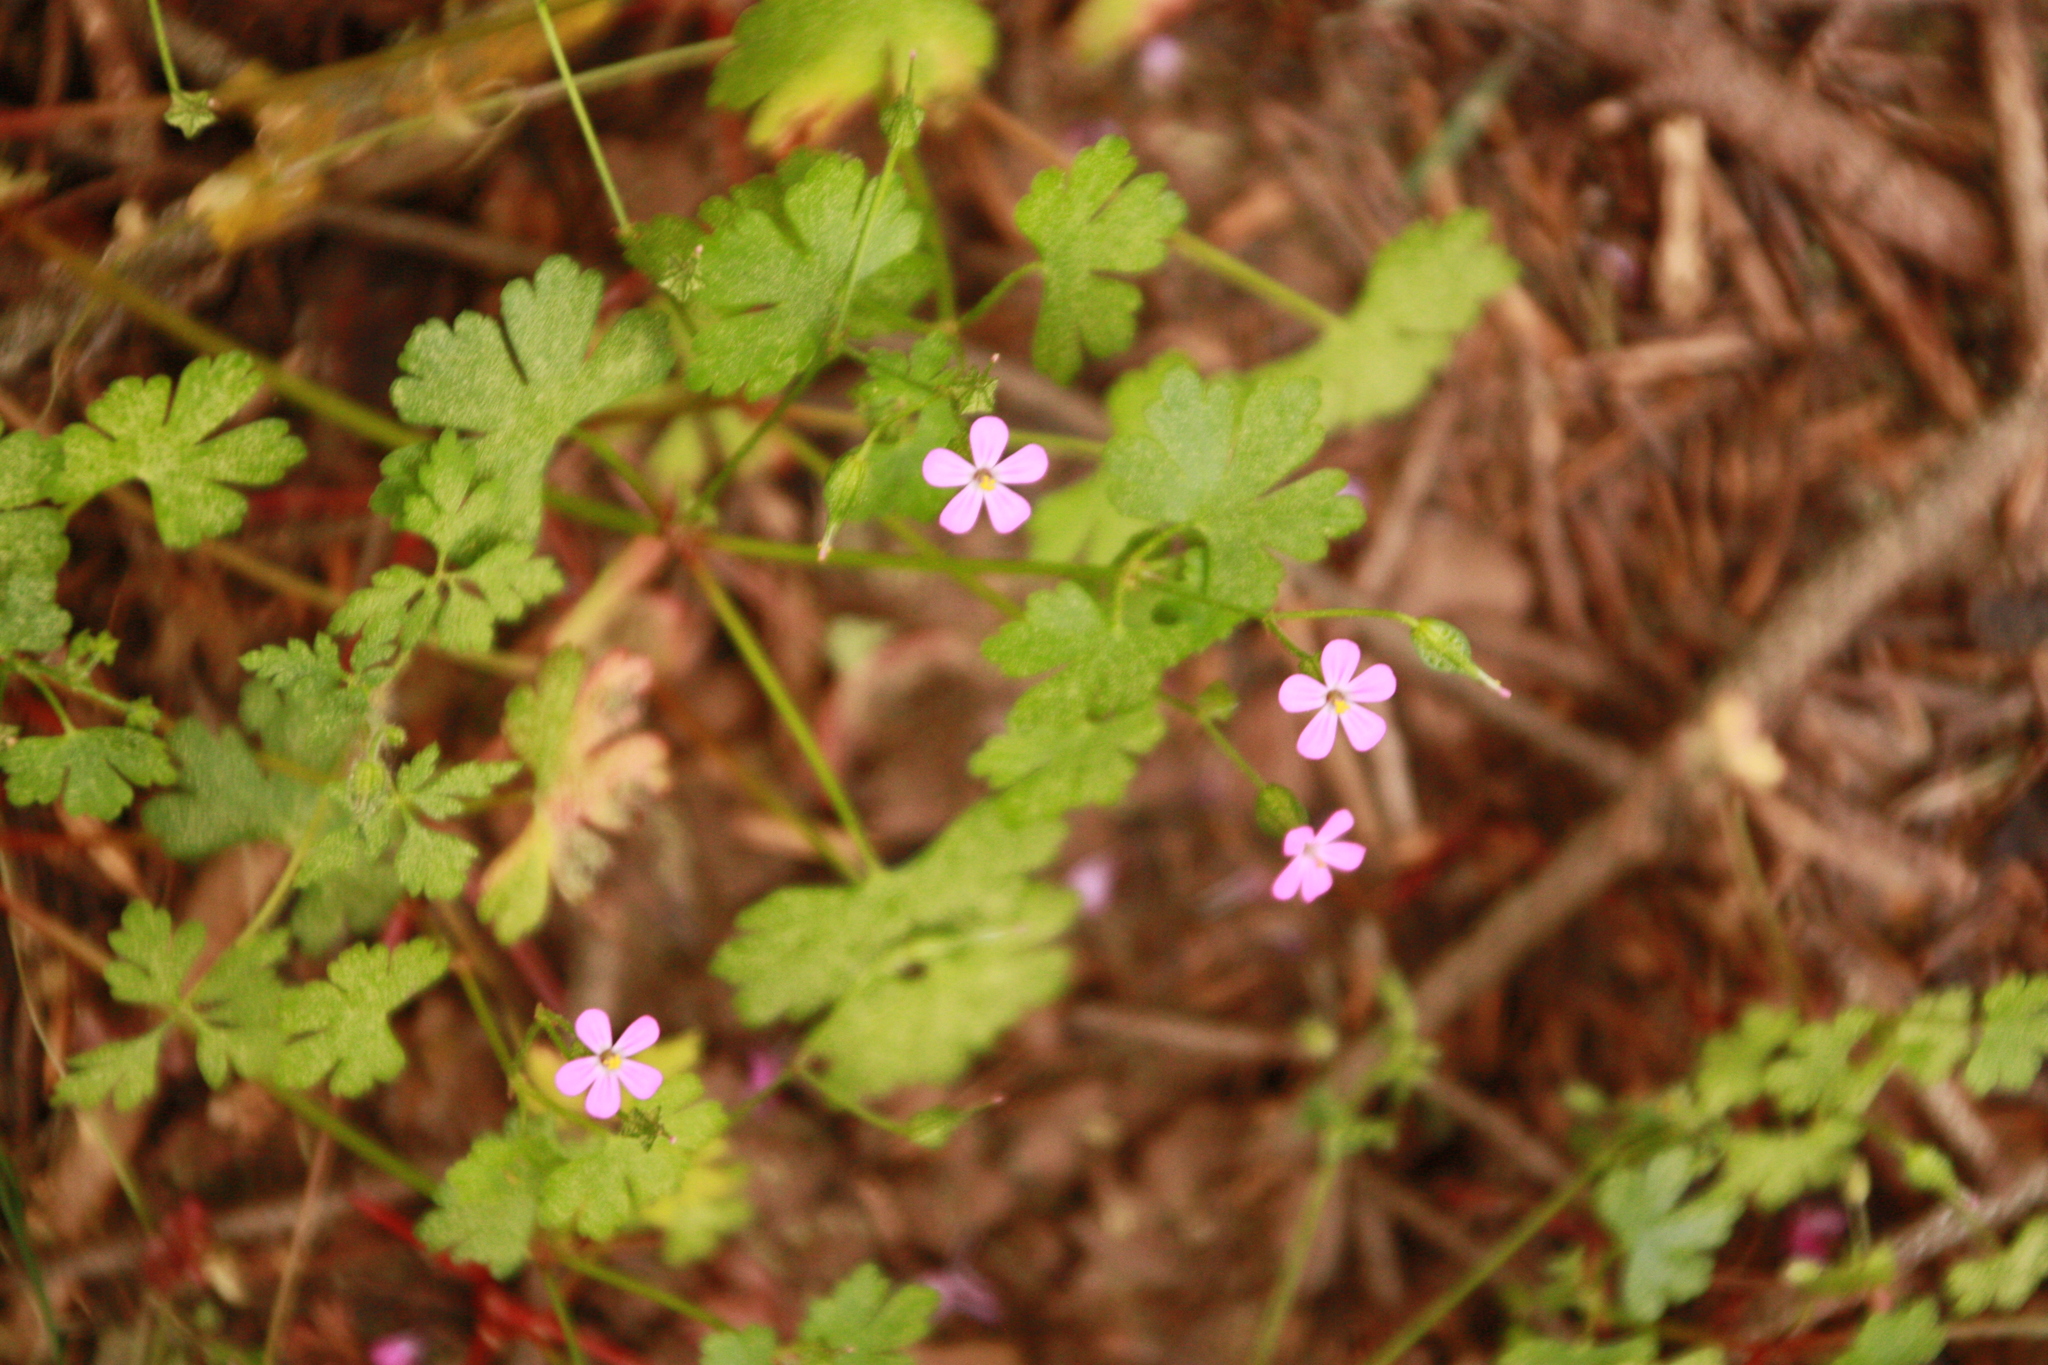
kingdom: Plantae
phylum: Tracheophyta
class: Magnoliopsida
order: Geraniales
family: Geraniaceae
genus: Geranium
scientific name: Geranium lucidum
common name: Shining crane's-bill
